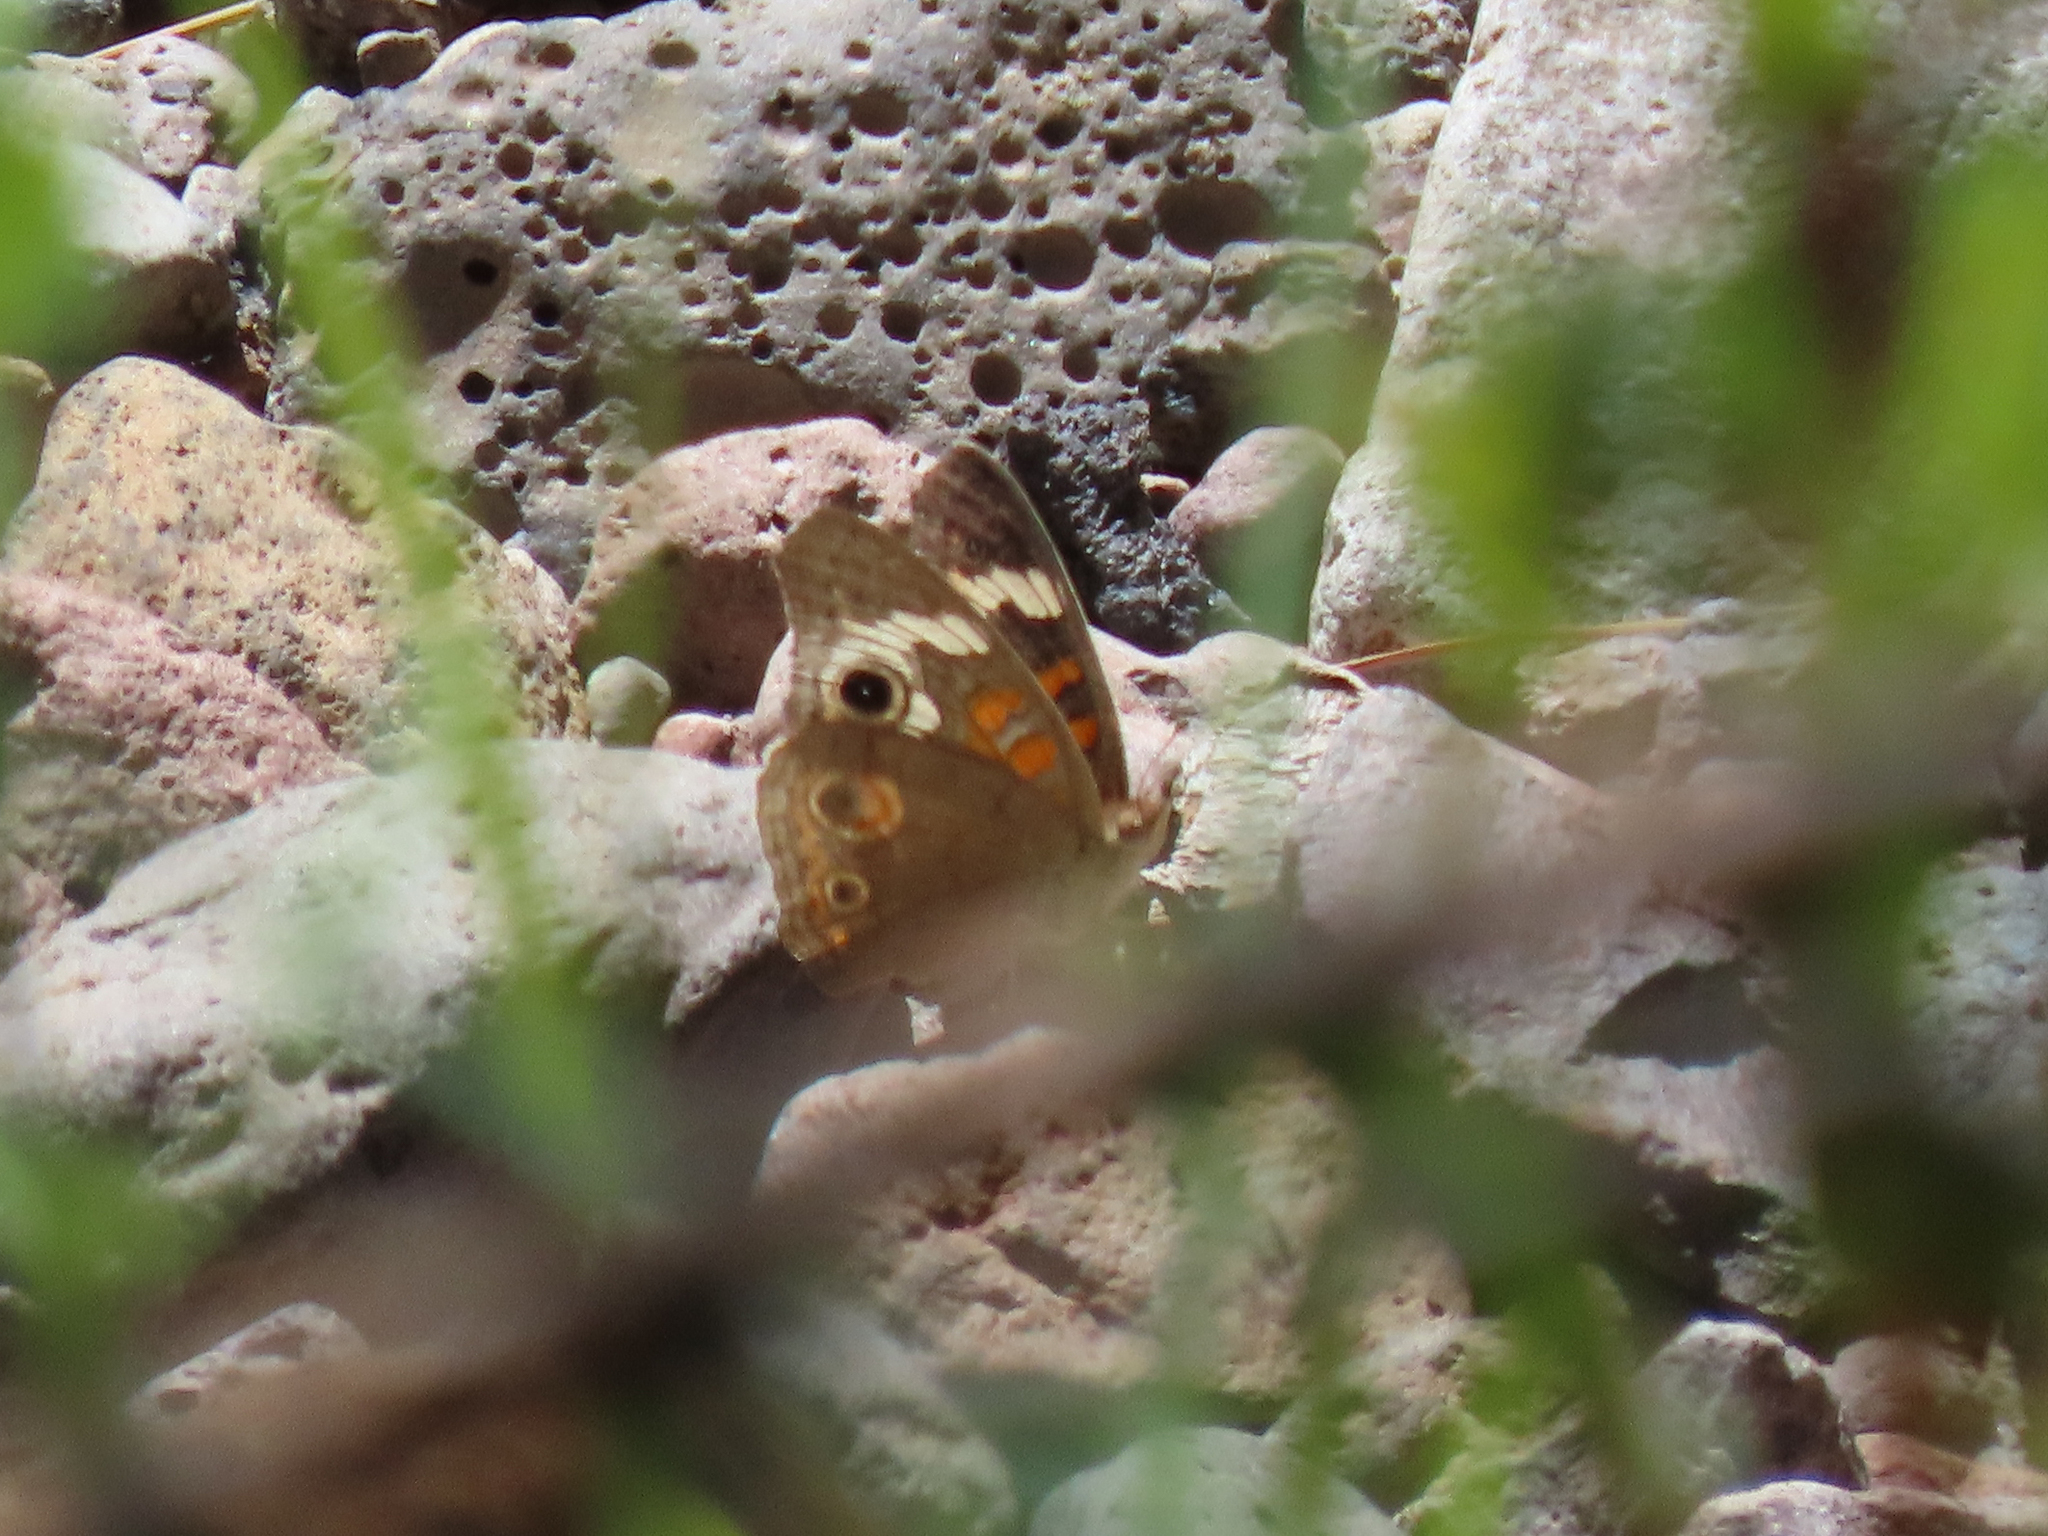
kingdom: Animalia
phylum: Arthropoda
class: Insecta
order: Lepidoptera
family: Nymphalidae
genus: Junonia
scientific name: Junonia grisea
